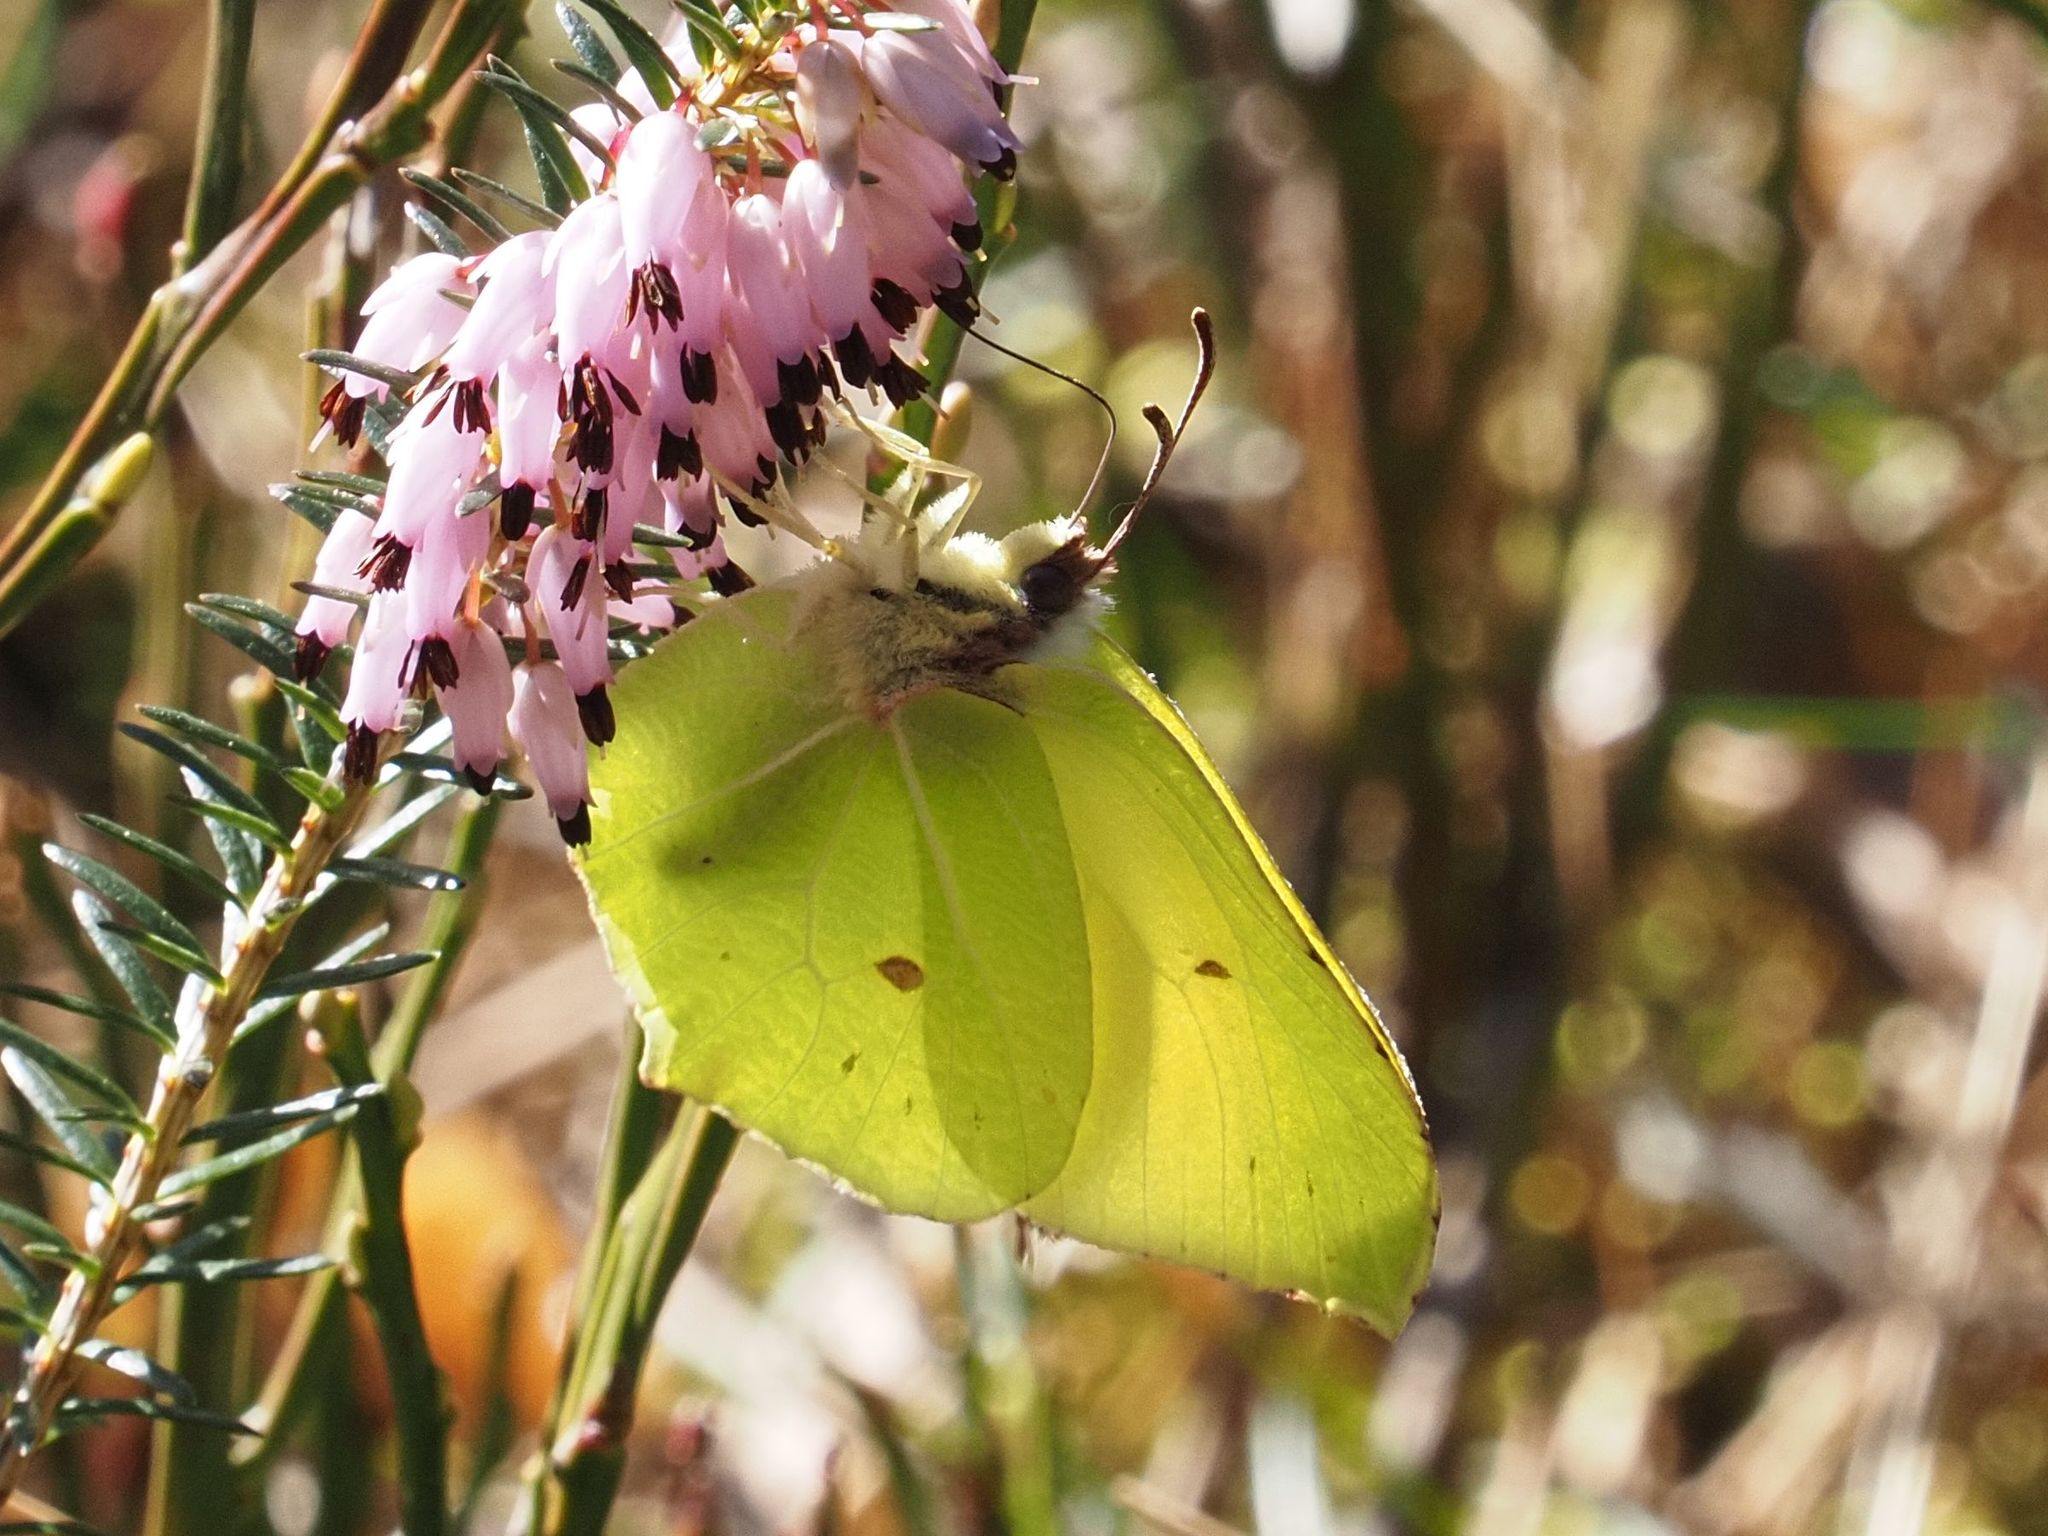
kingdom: Animalia
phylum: Arthropoda
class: Insecta
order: Lepidoptera
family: Pieridae
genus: Gonepteryx
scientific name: Gonepteryx rhamni
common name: Brimstone
